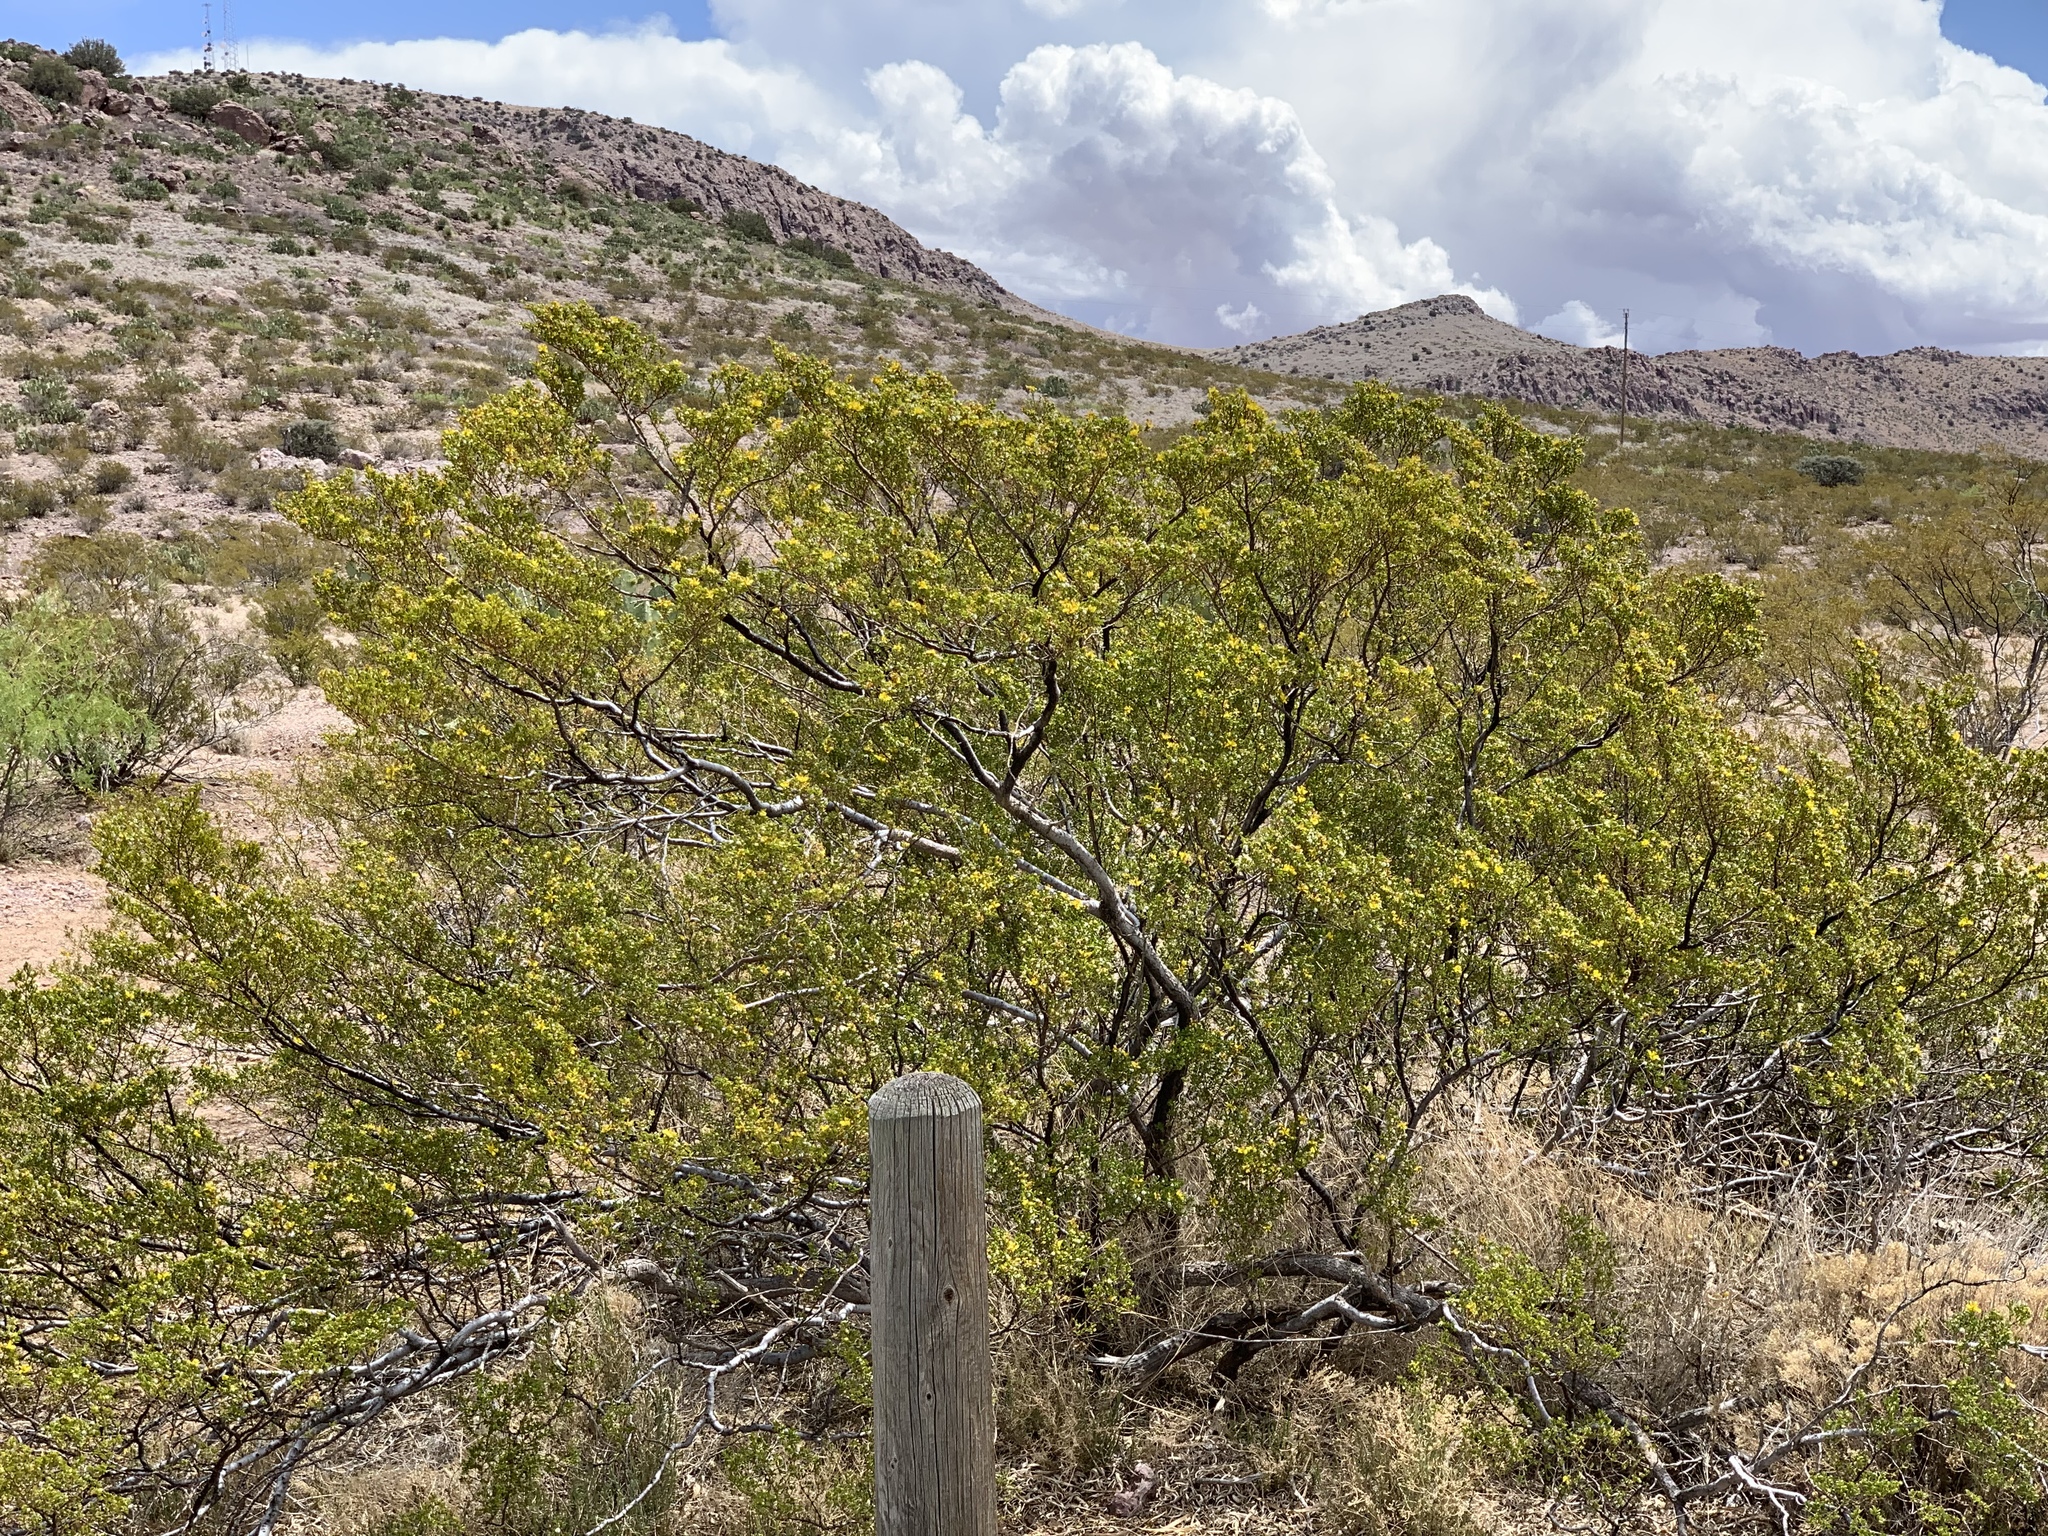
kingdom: Plantae
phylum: Tracheophyta
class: Magnoliopsida
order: Zygophyllales
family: Zygophyllaceae
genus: Larrea
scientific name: Larrea tridentata
